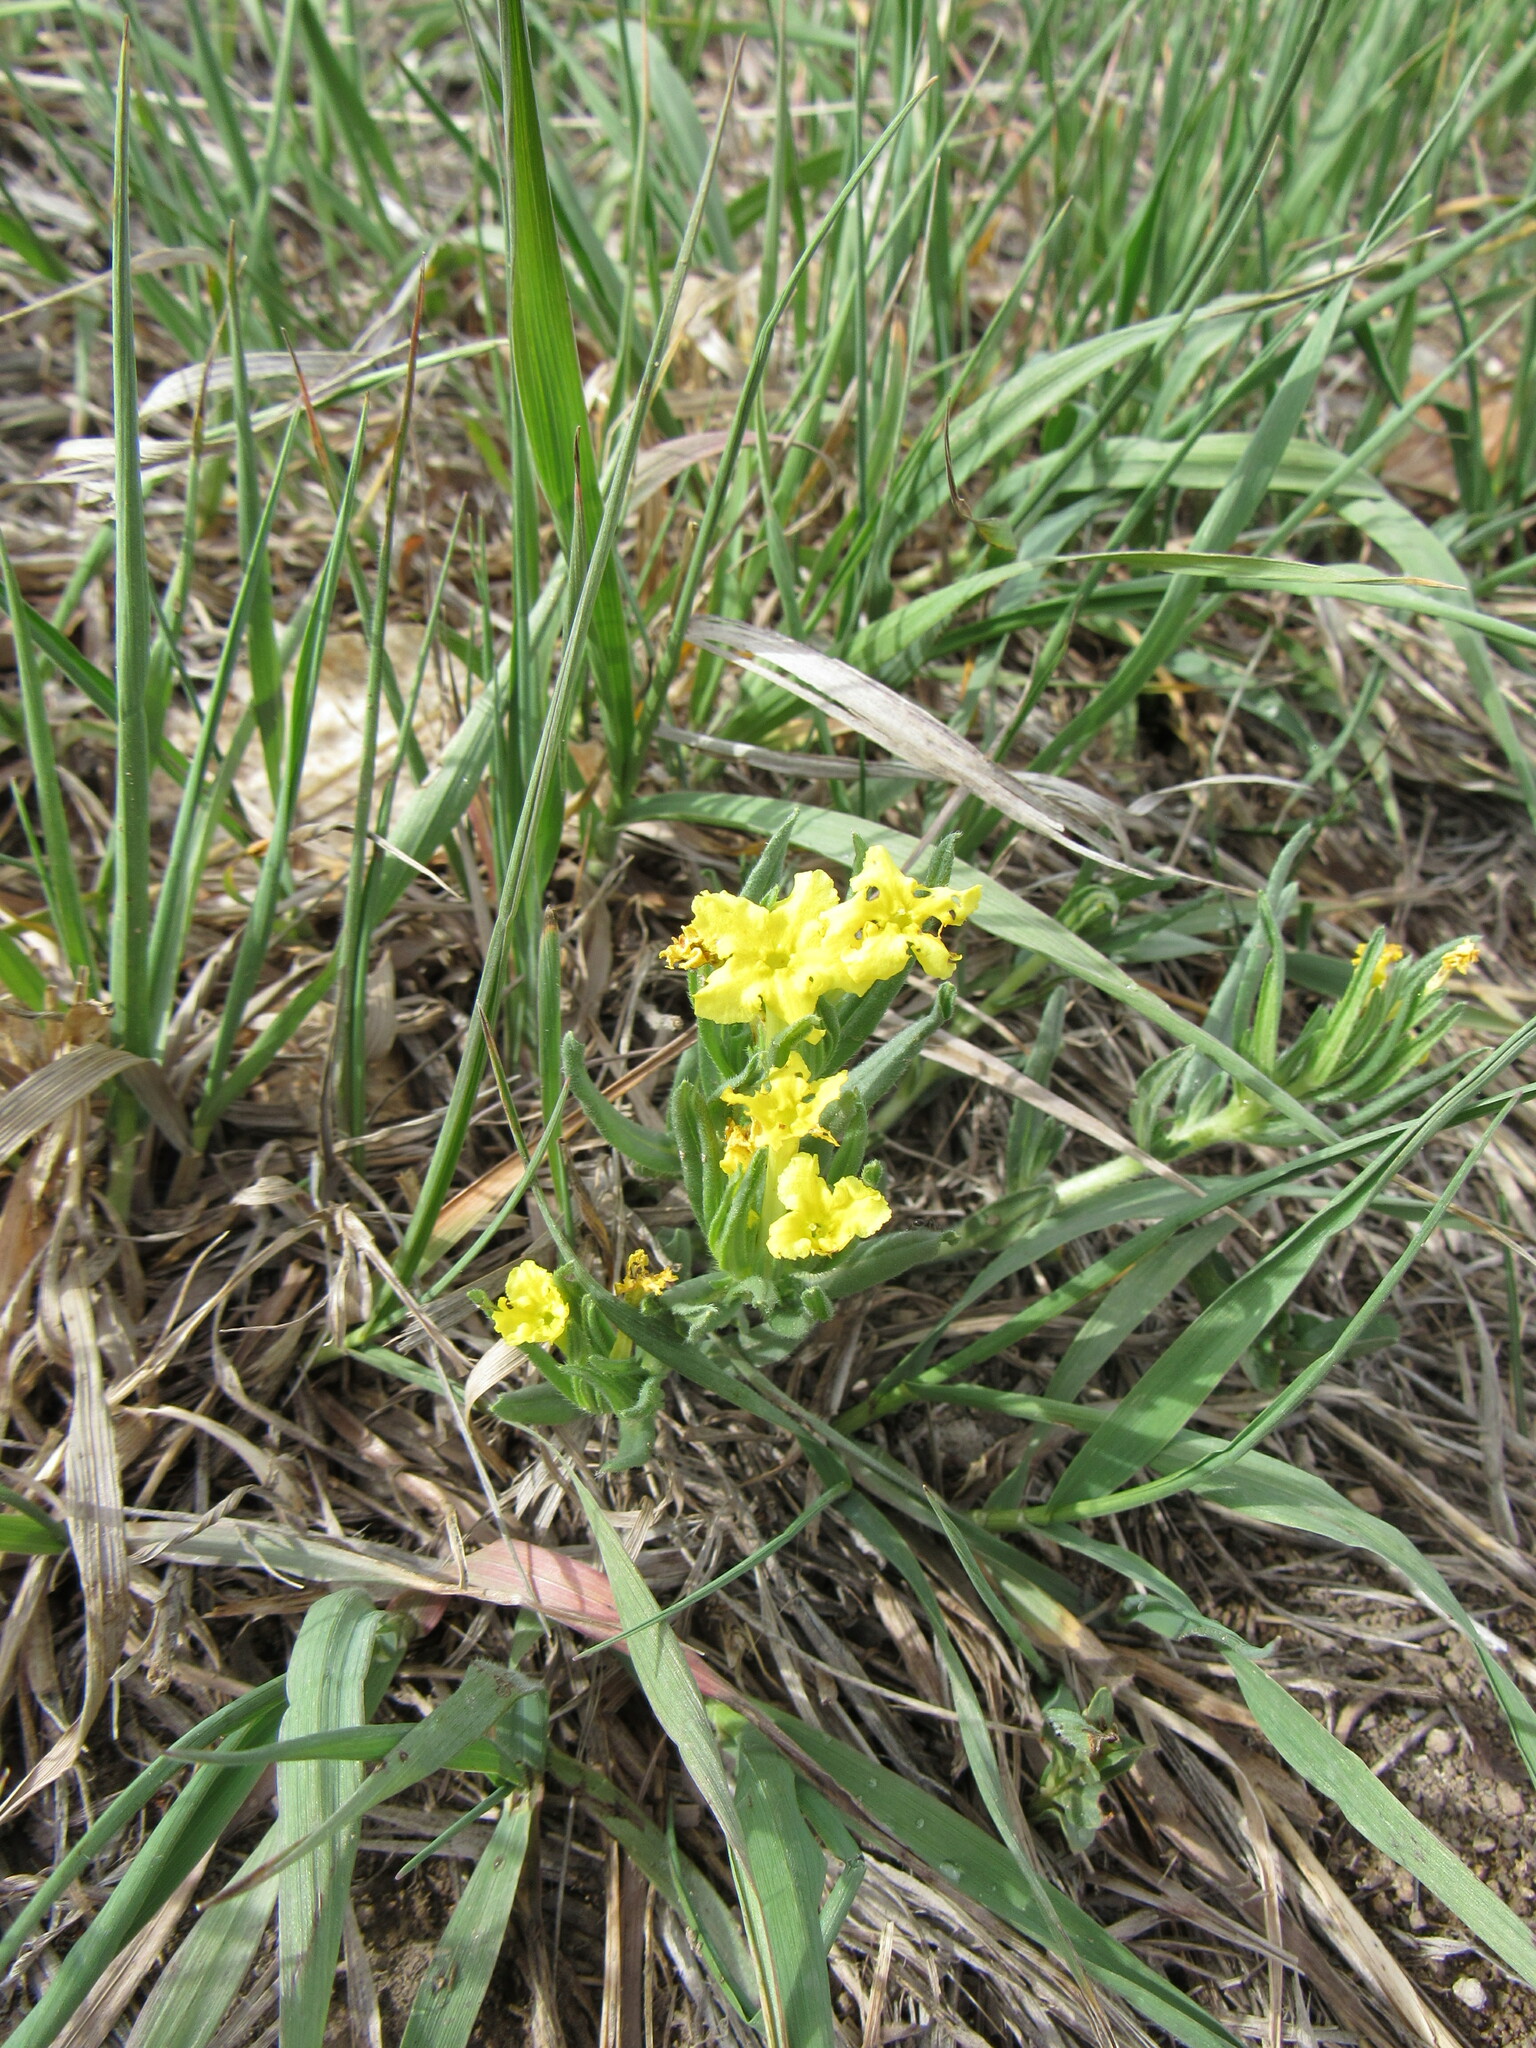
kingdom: Plantae
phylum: Tracheophyta
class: Magnoliopsida
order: Boraginales
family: Boraginaceae
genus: Lithospermum
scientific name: Lithospermum incisum
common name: Fringed gromwell
